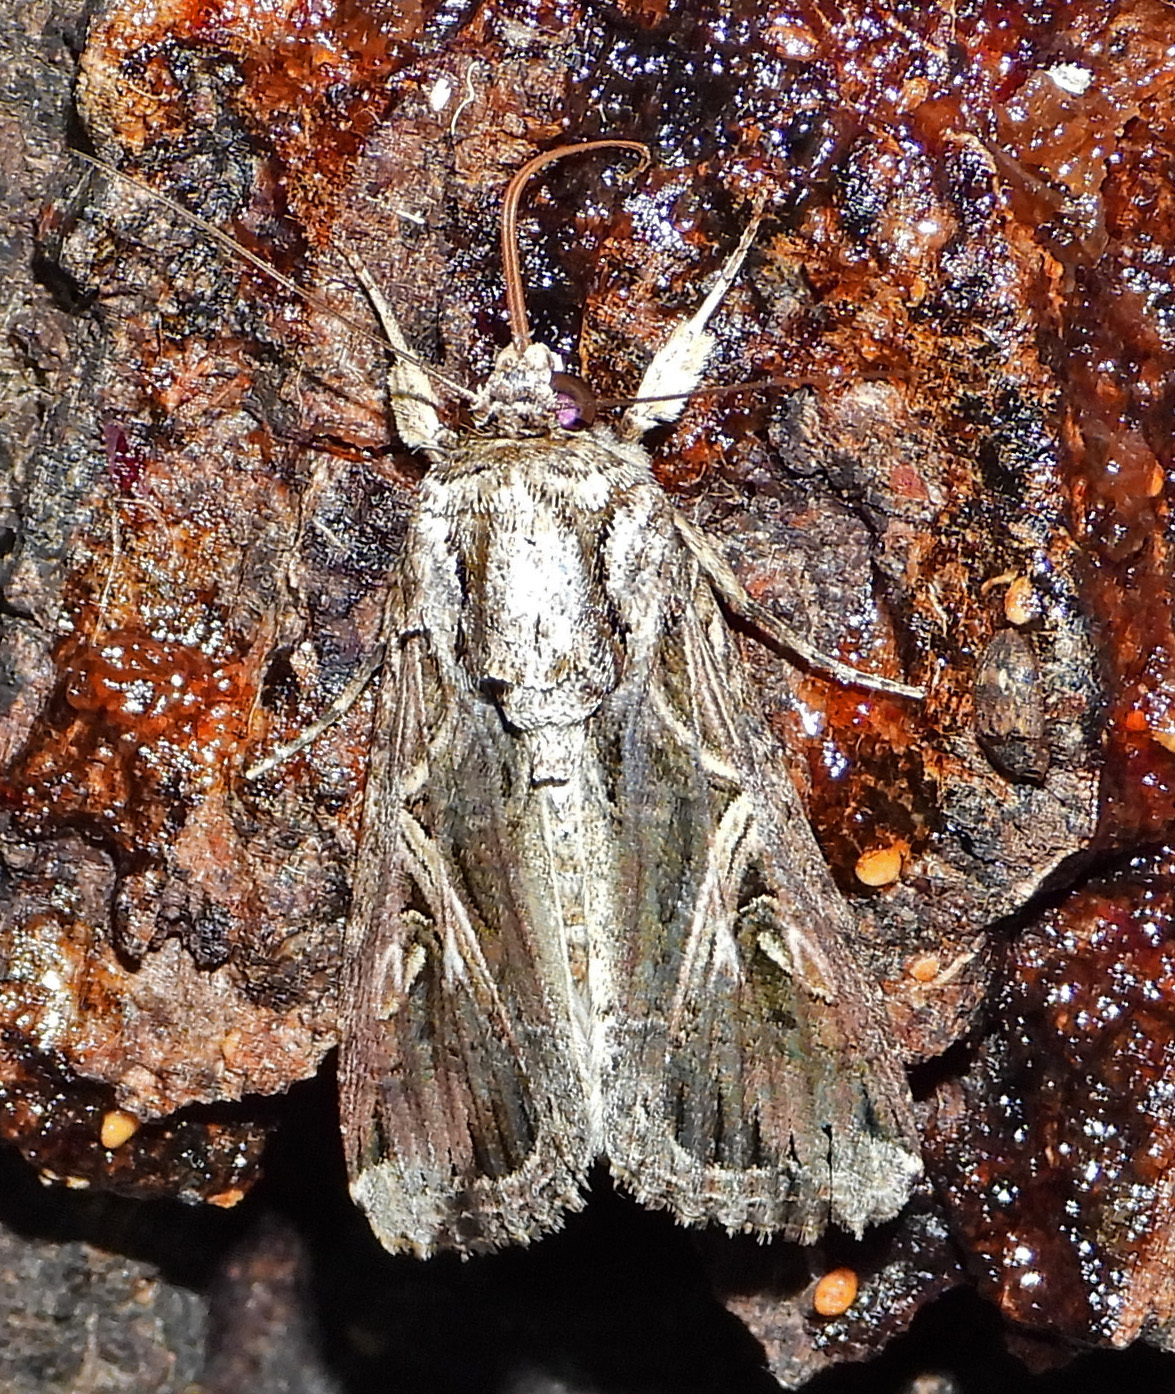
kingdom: Animalia
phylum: Arthropoda
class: Insecta
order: Lepidoptera
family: Noctuidae
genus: Spodoptera
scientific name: Spodoptera dolichos
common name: Sweetpotato armyworm
